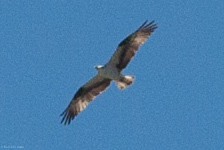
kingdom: Animalia
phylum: Chordata
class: Aves
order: Accipitriformes
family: Pandionidae
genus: Pandion
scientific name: Pandion haliaetus
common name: Osprey
